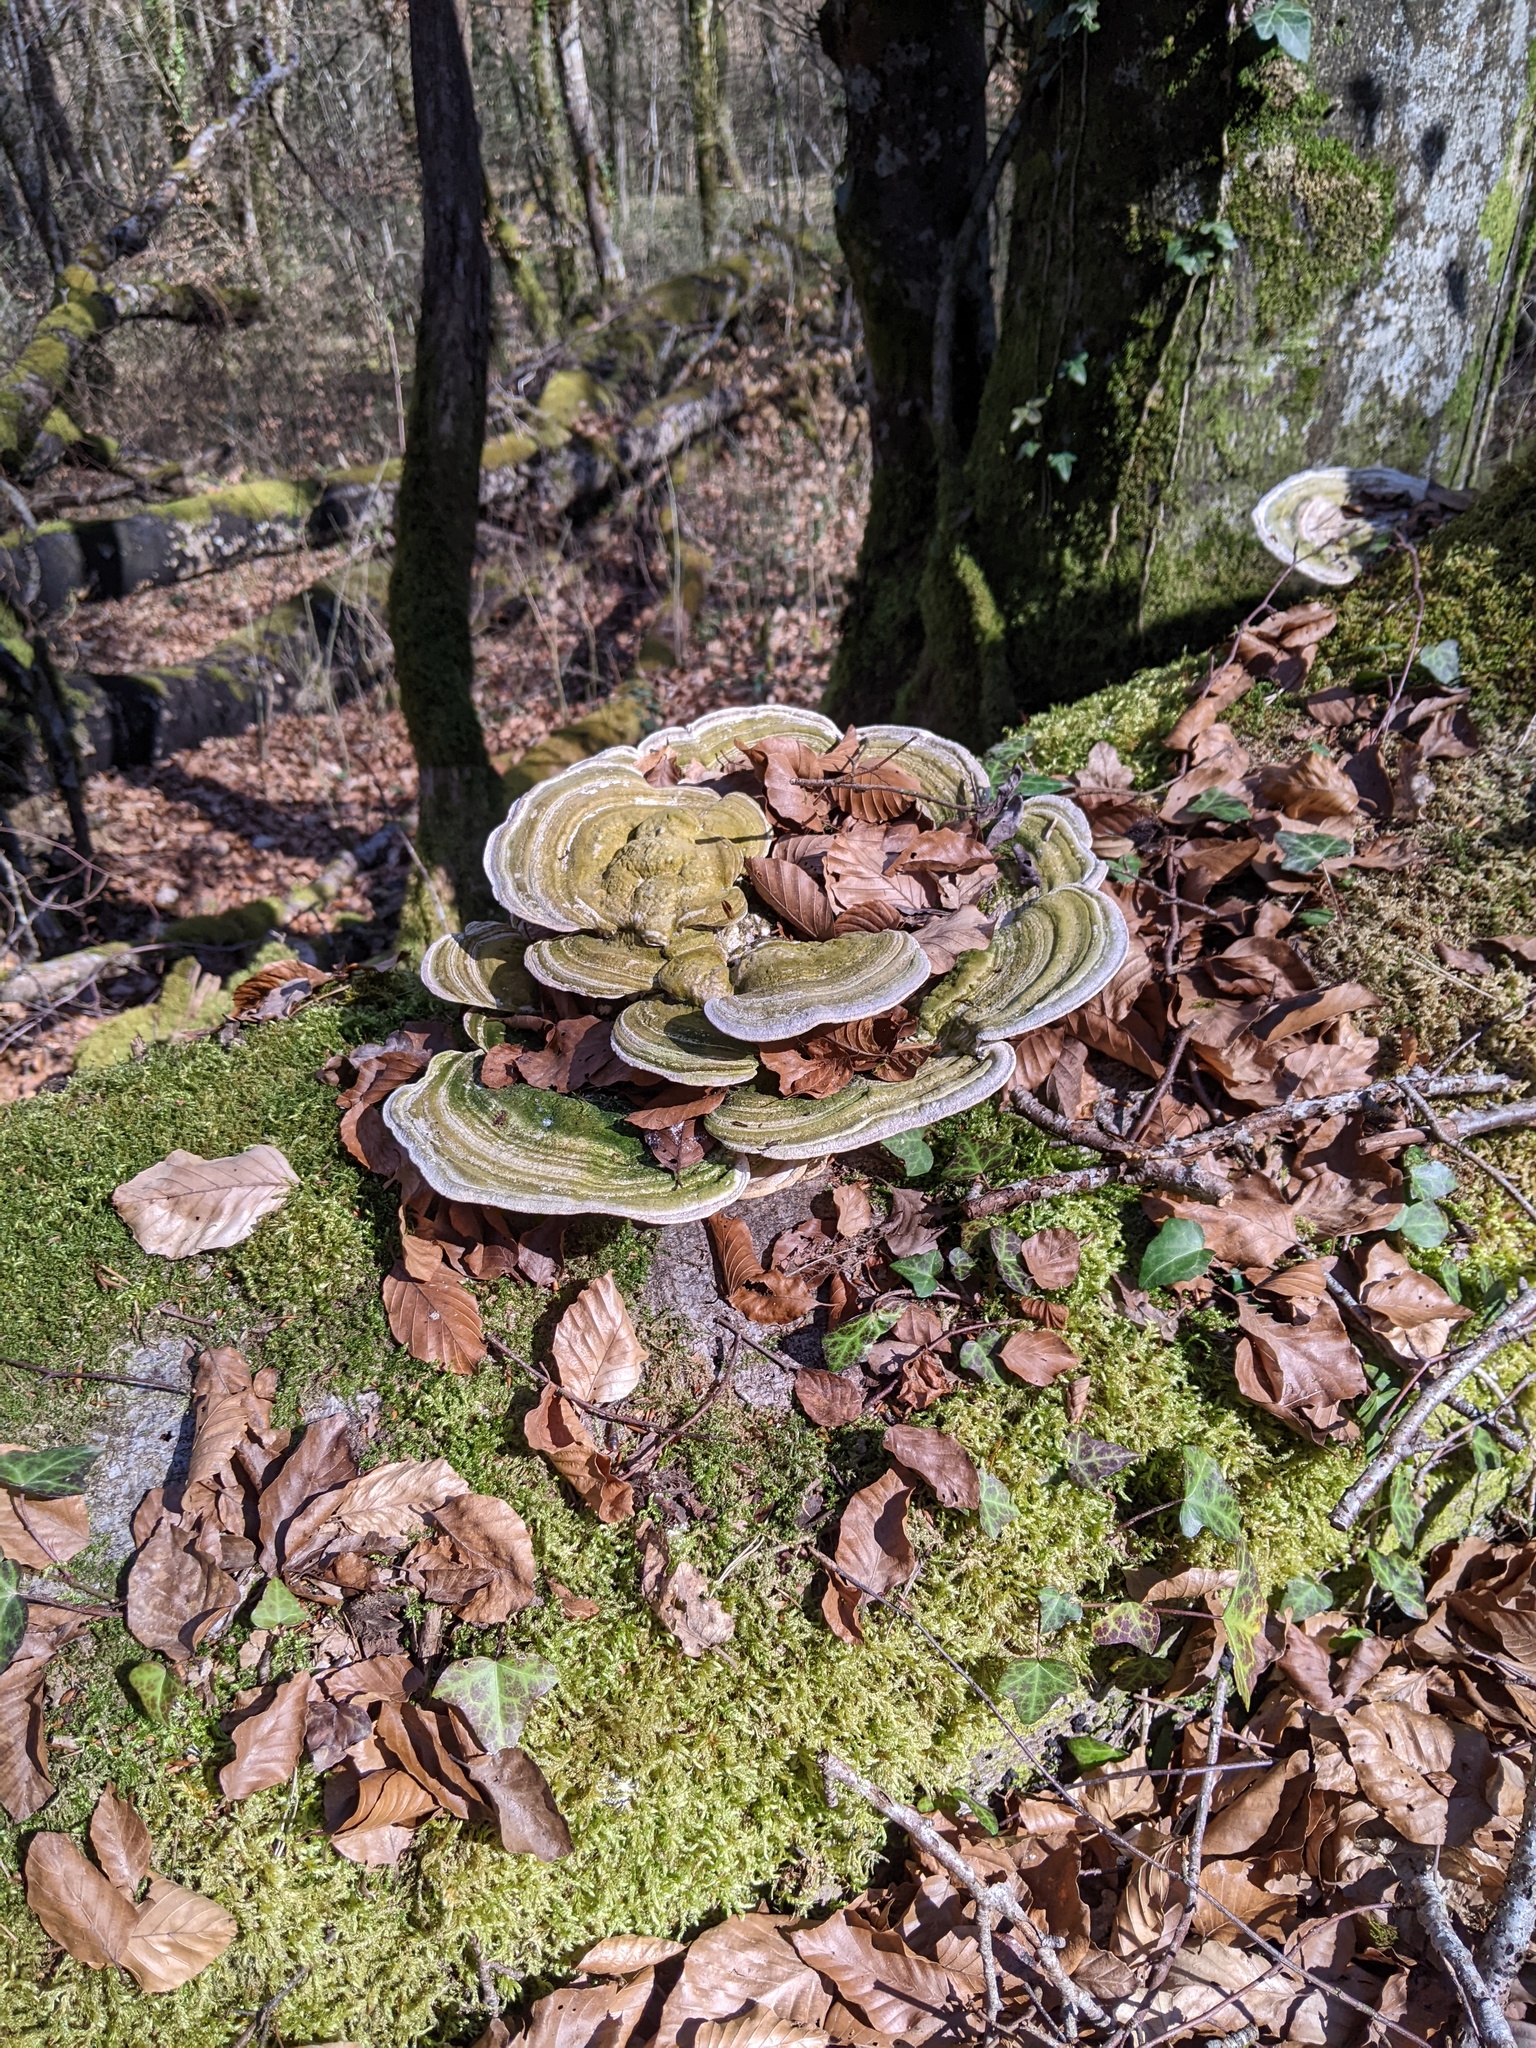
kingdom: Fungi
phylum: Basidiomycota
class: Agaricomycetes
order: Polyporales
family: Polyporaceae
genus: Trametes
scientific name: Trametes gibbosa
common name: Lumpy bracket
